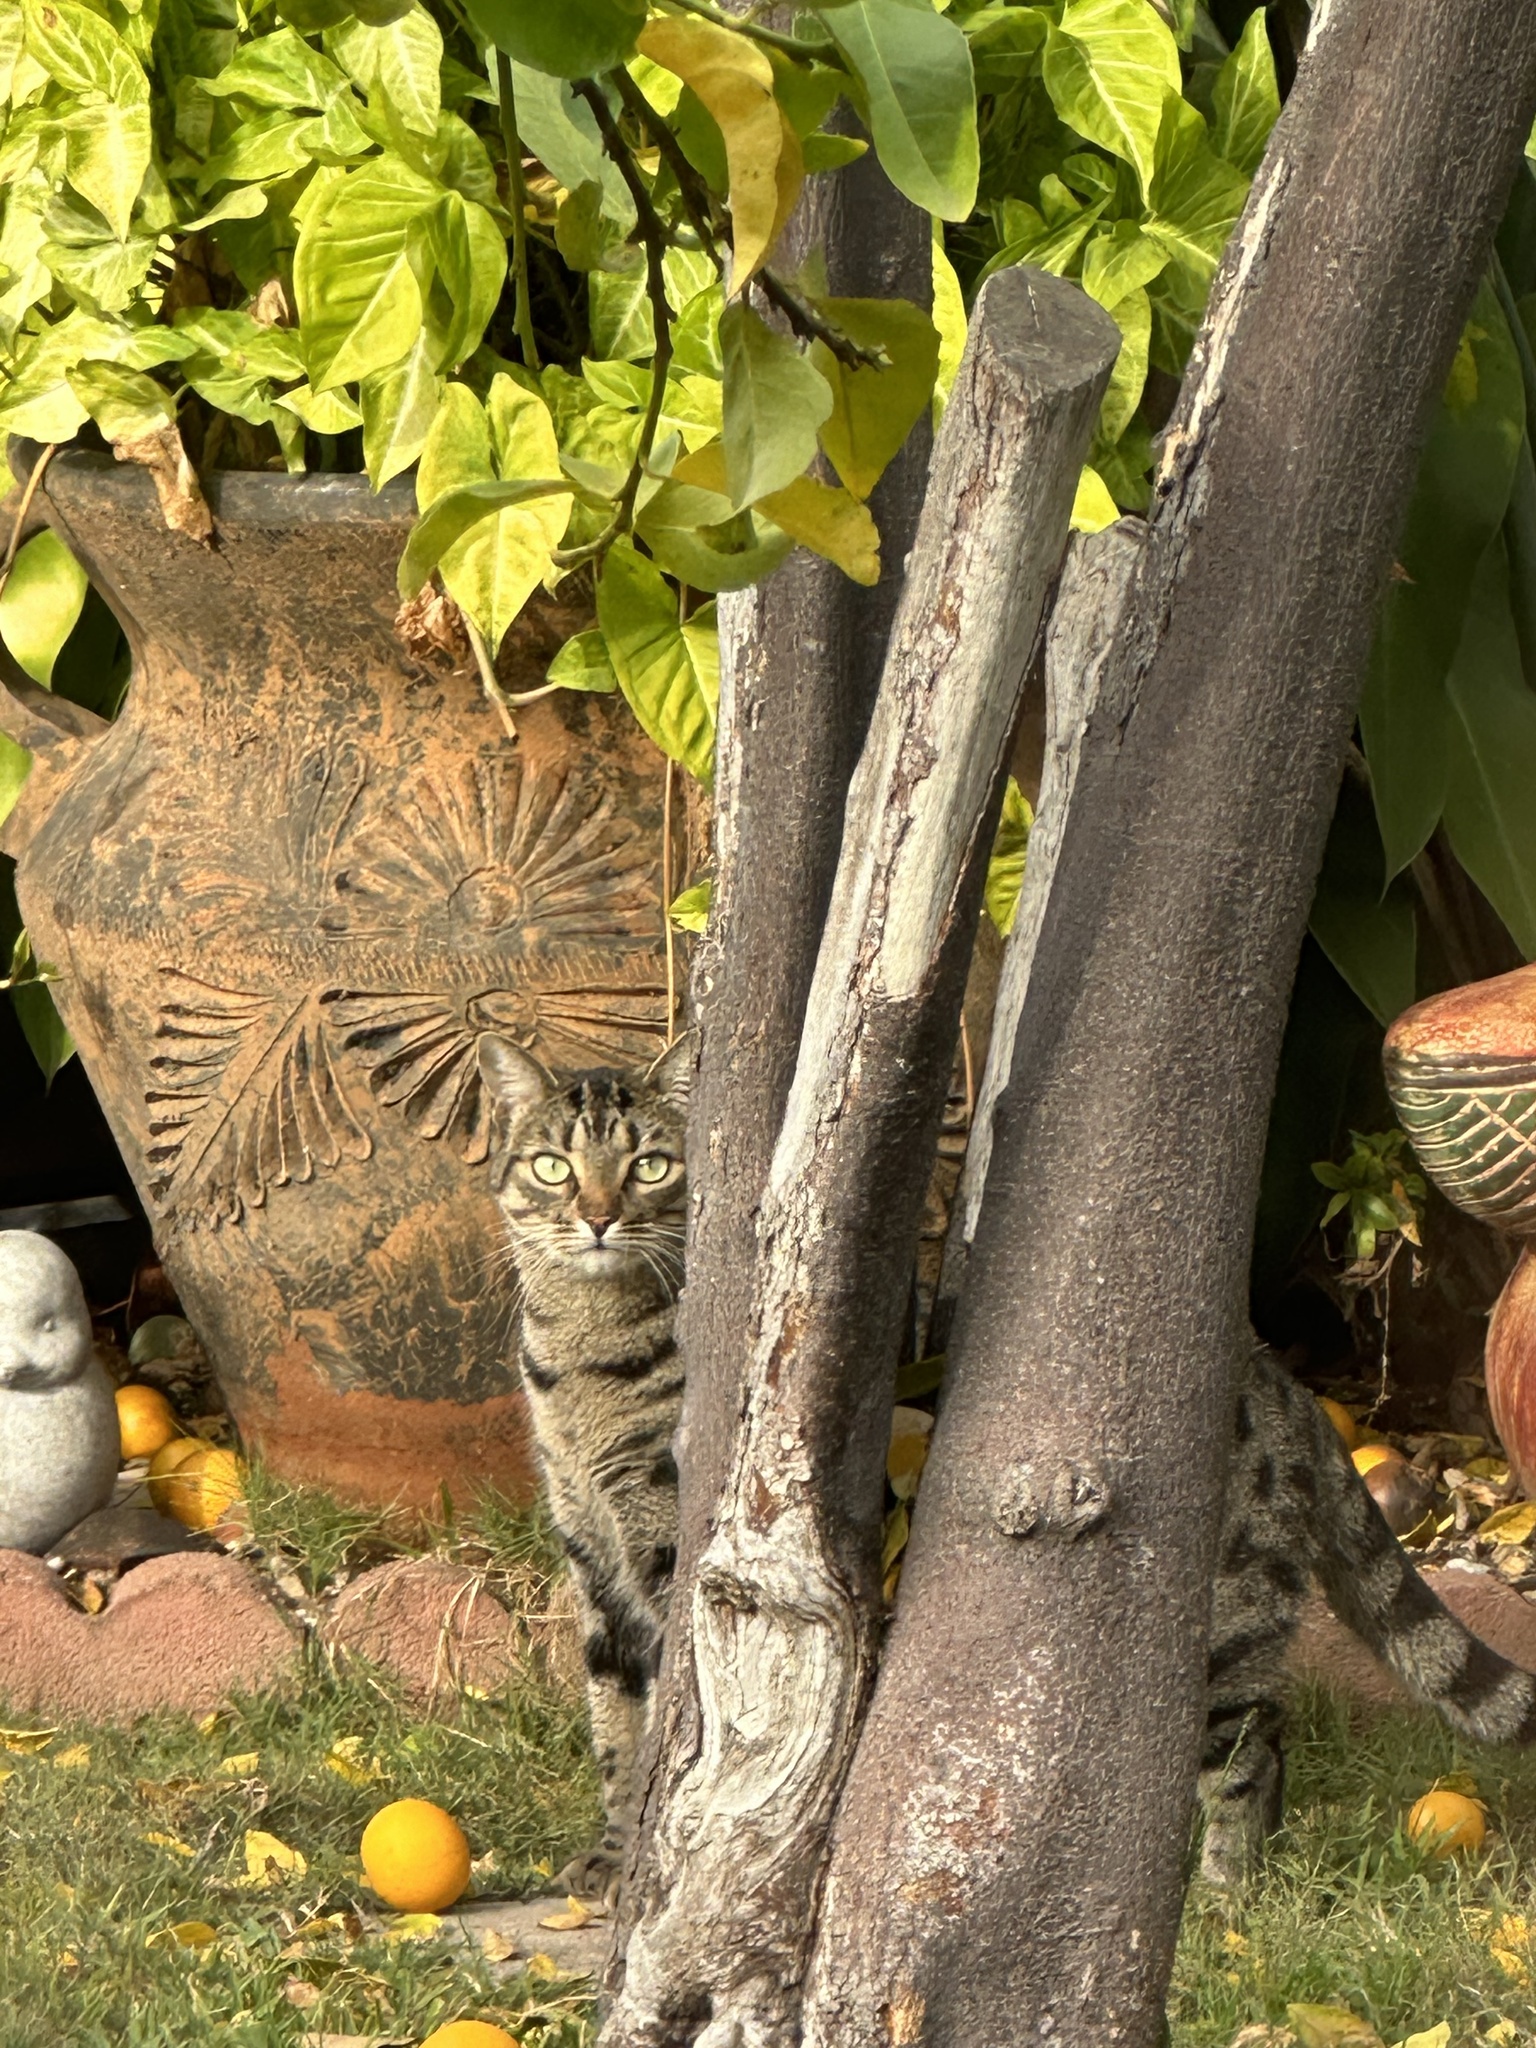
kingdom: Animalia
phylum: Chordata
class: Mammalia
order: Carnivora
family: Felidae
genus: Felis
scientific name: Felis catus
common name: Domestic cat
